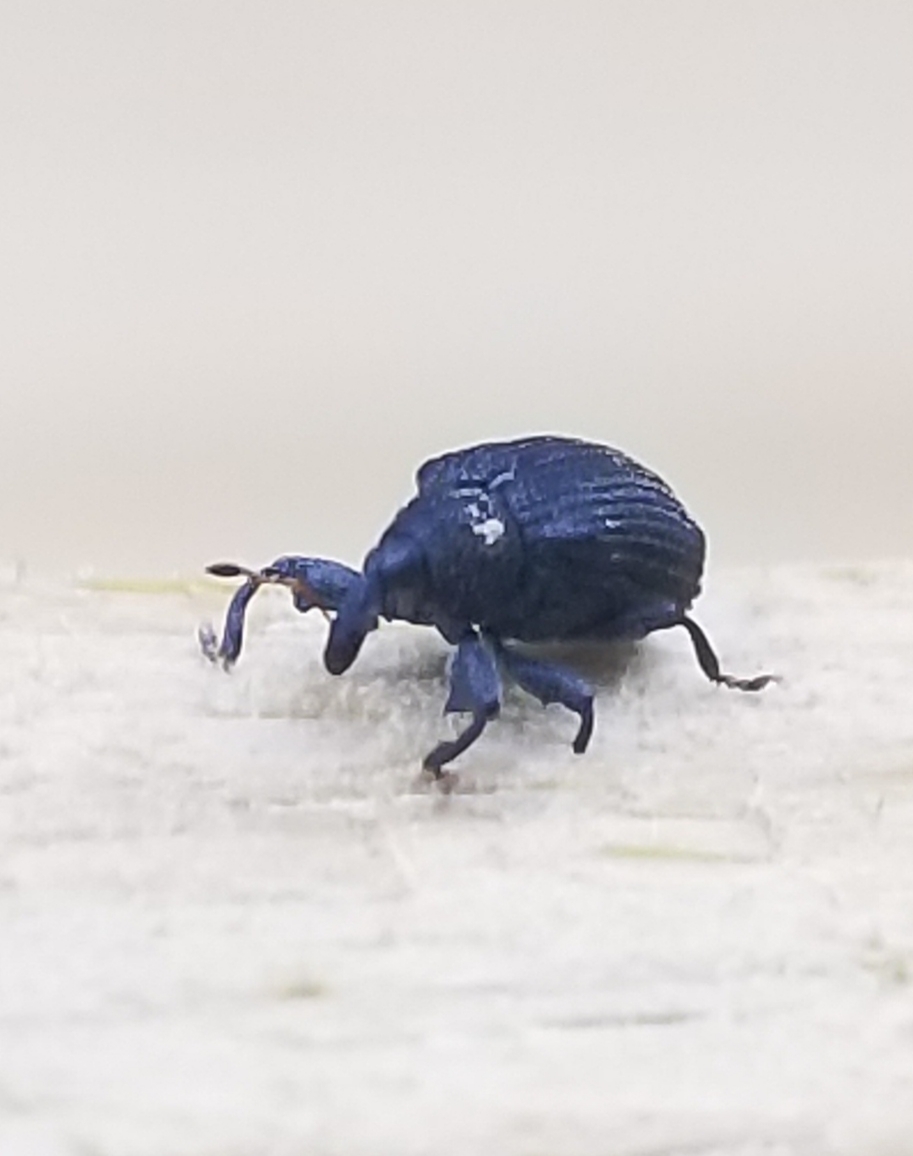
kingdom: Animalia
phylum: Arthropoda
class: Insecta
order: Coleoptera
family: Curculionidae
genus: Odontopus
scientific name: Odontopus calceatus
